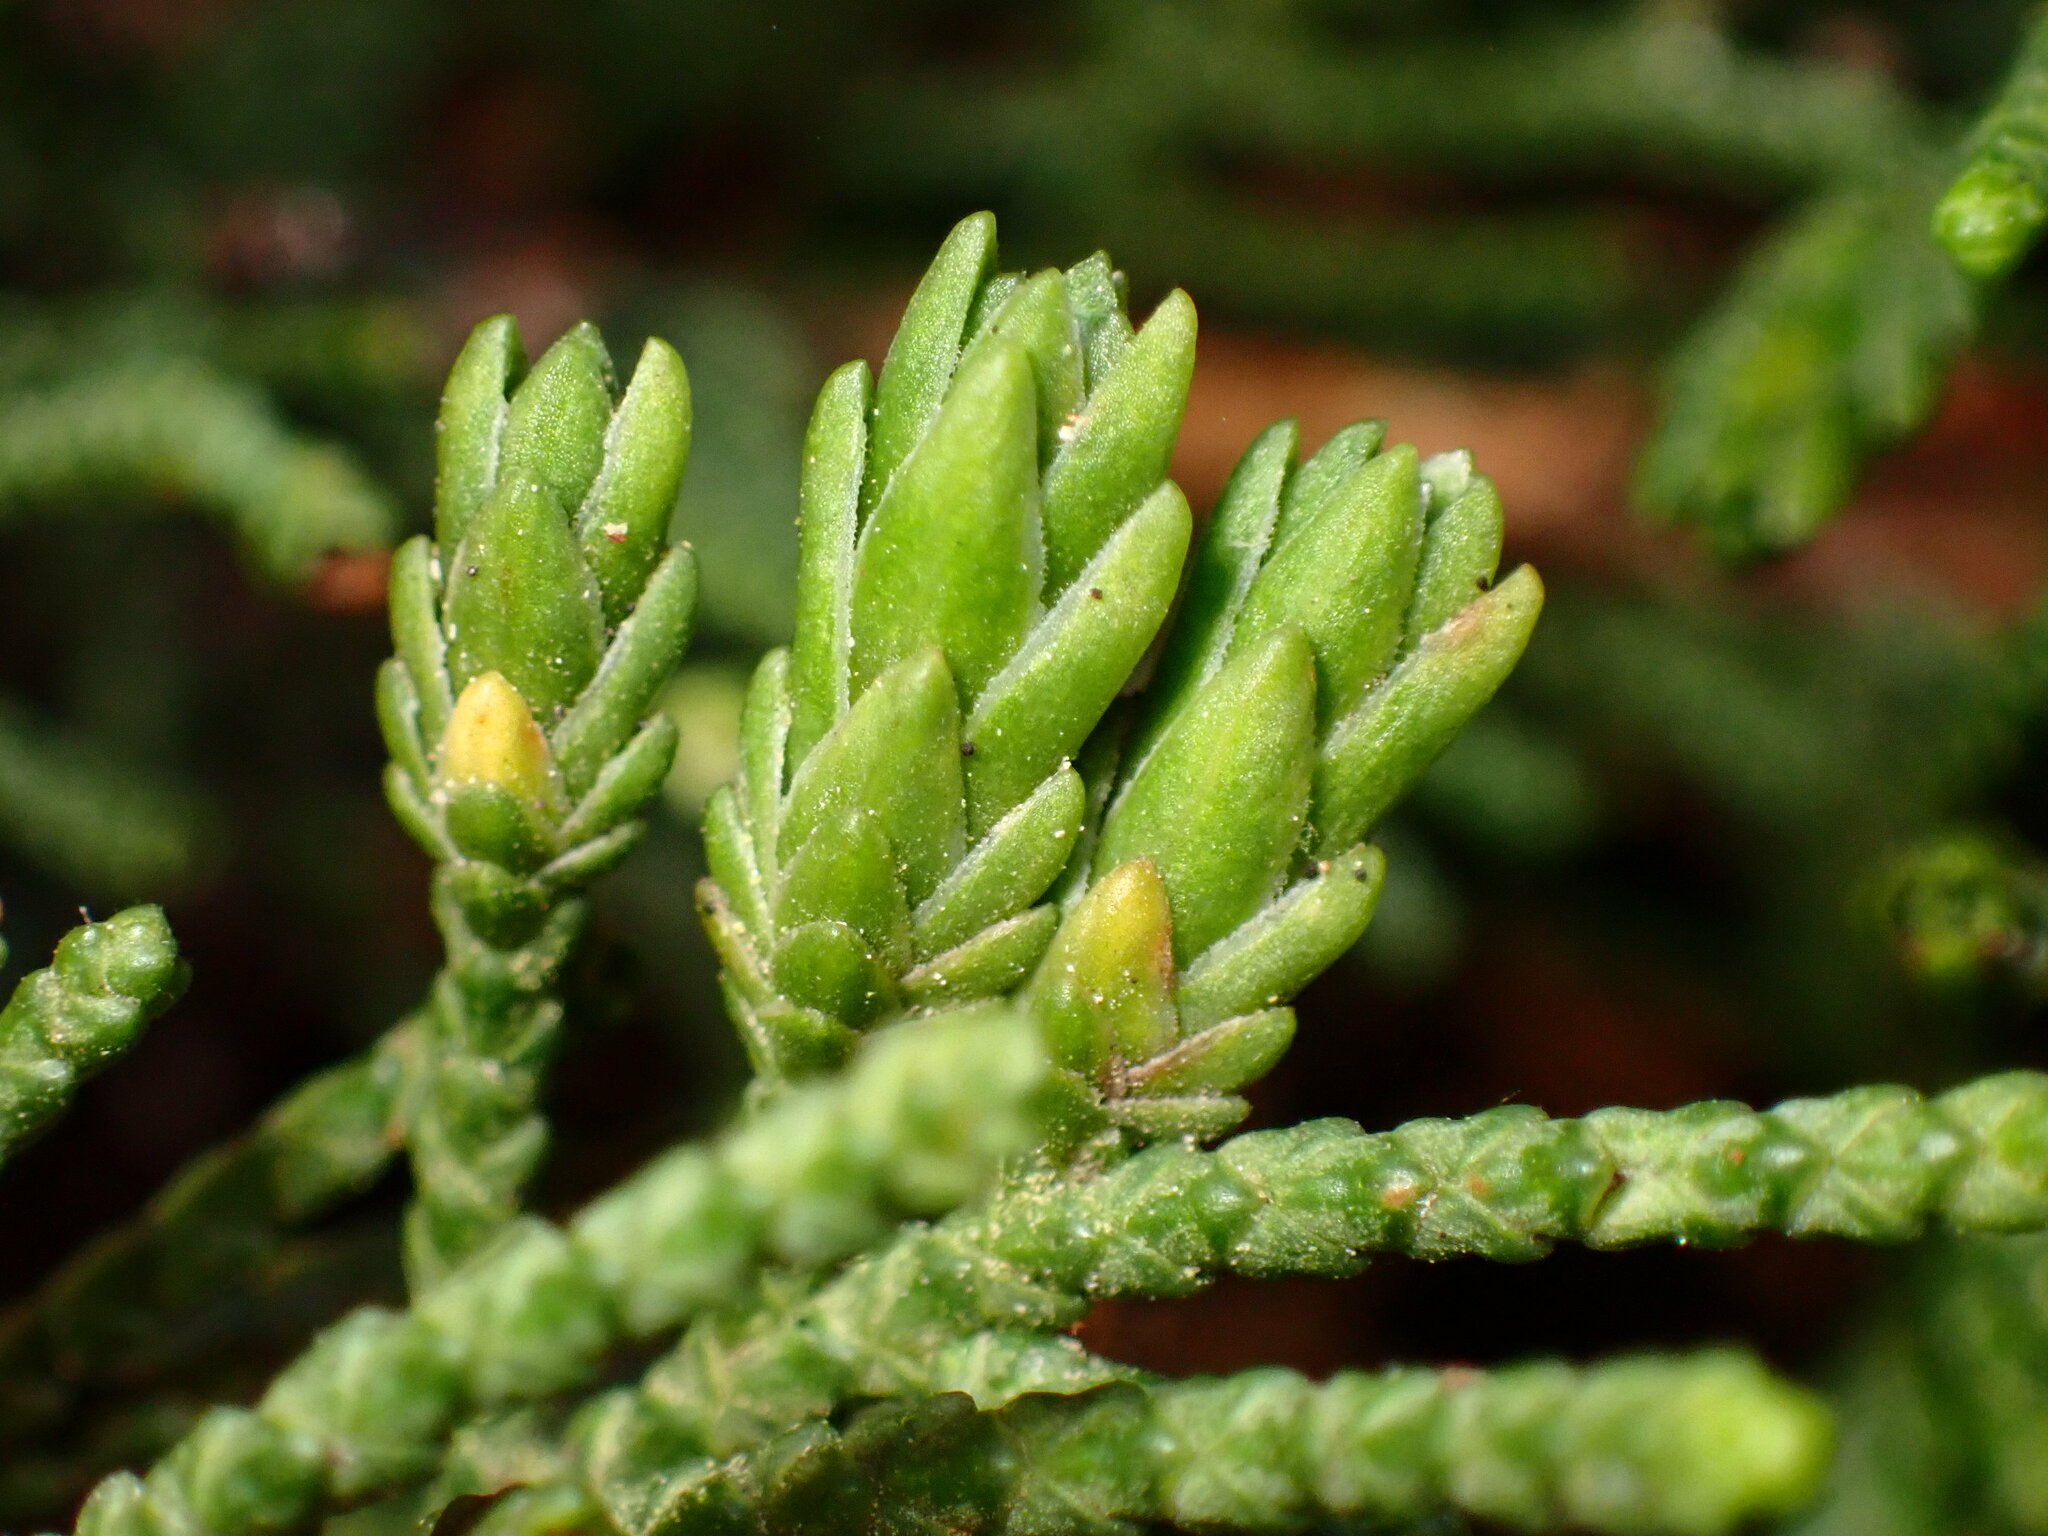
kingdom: Animalia
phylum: Arthropoda
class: Insecta
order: Diptera
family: Cecidomyiidae
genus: Oligotrophus
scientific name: Oligotrophus cupressi
